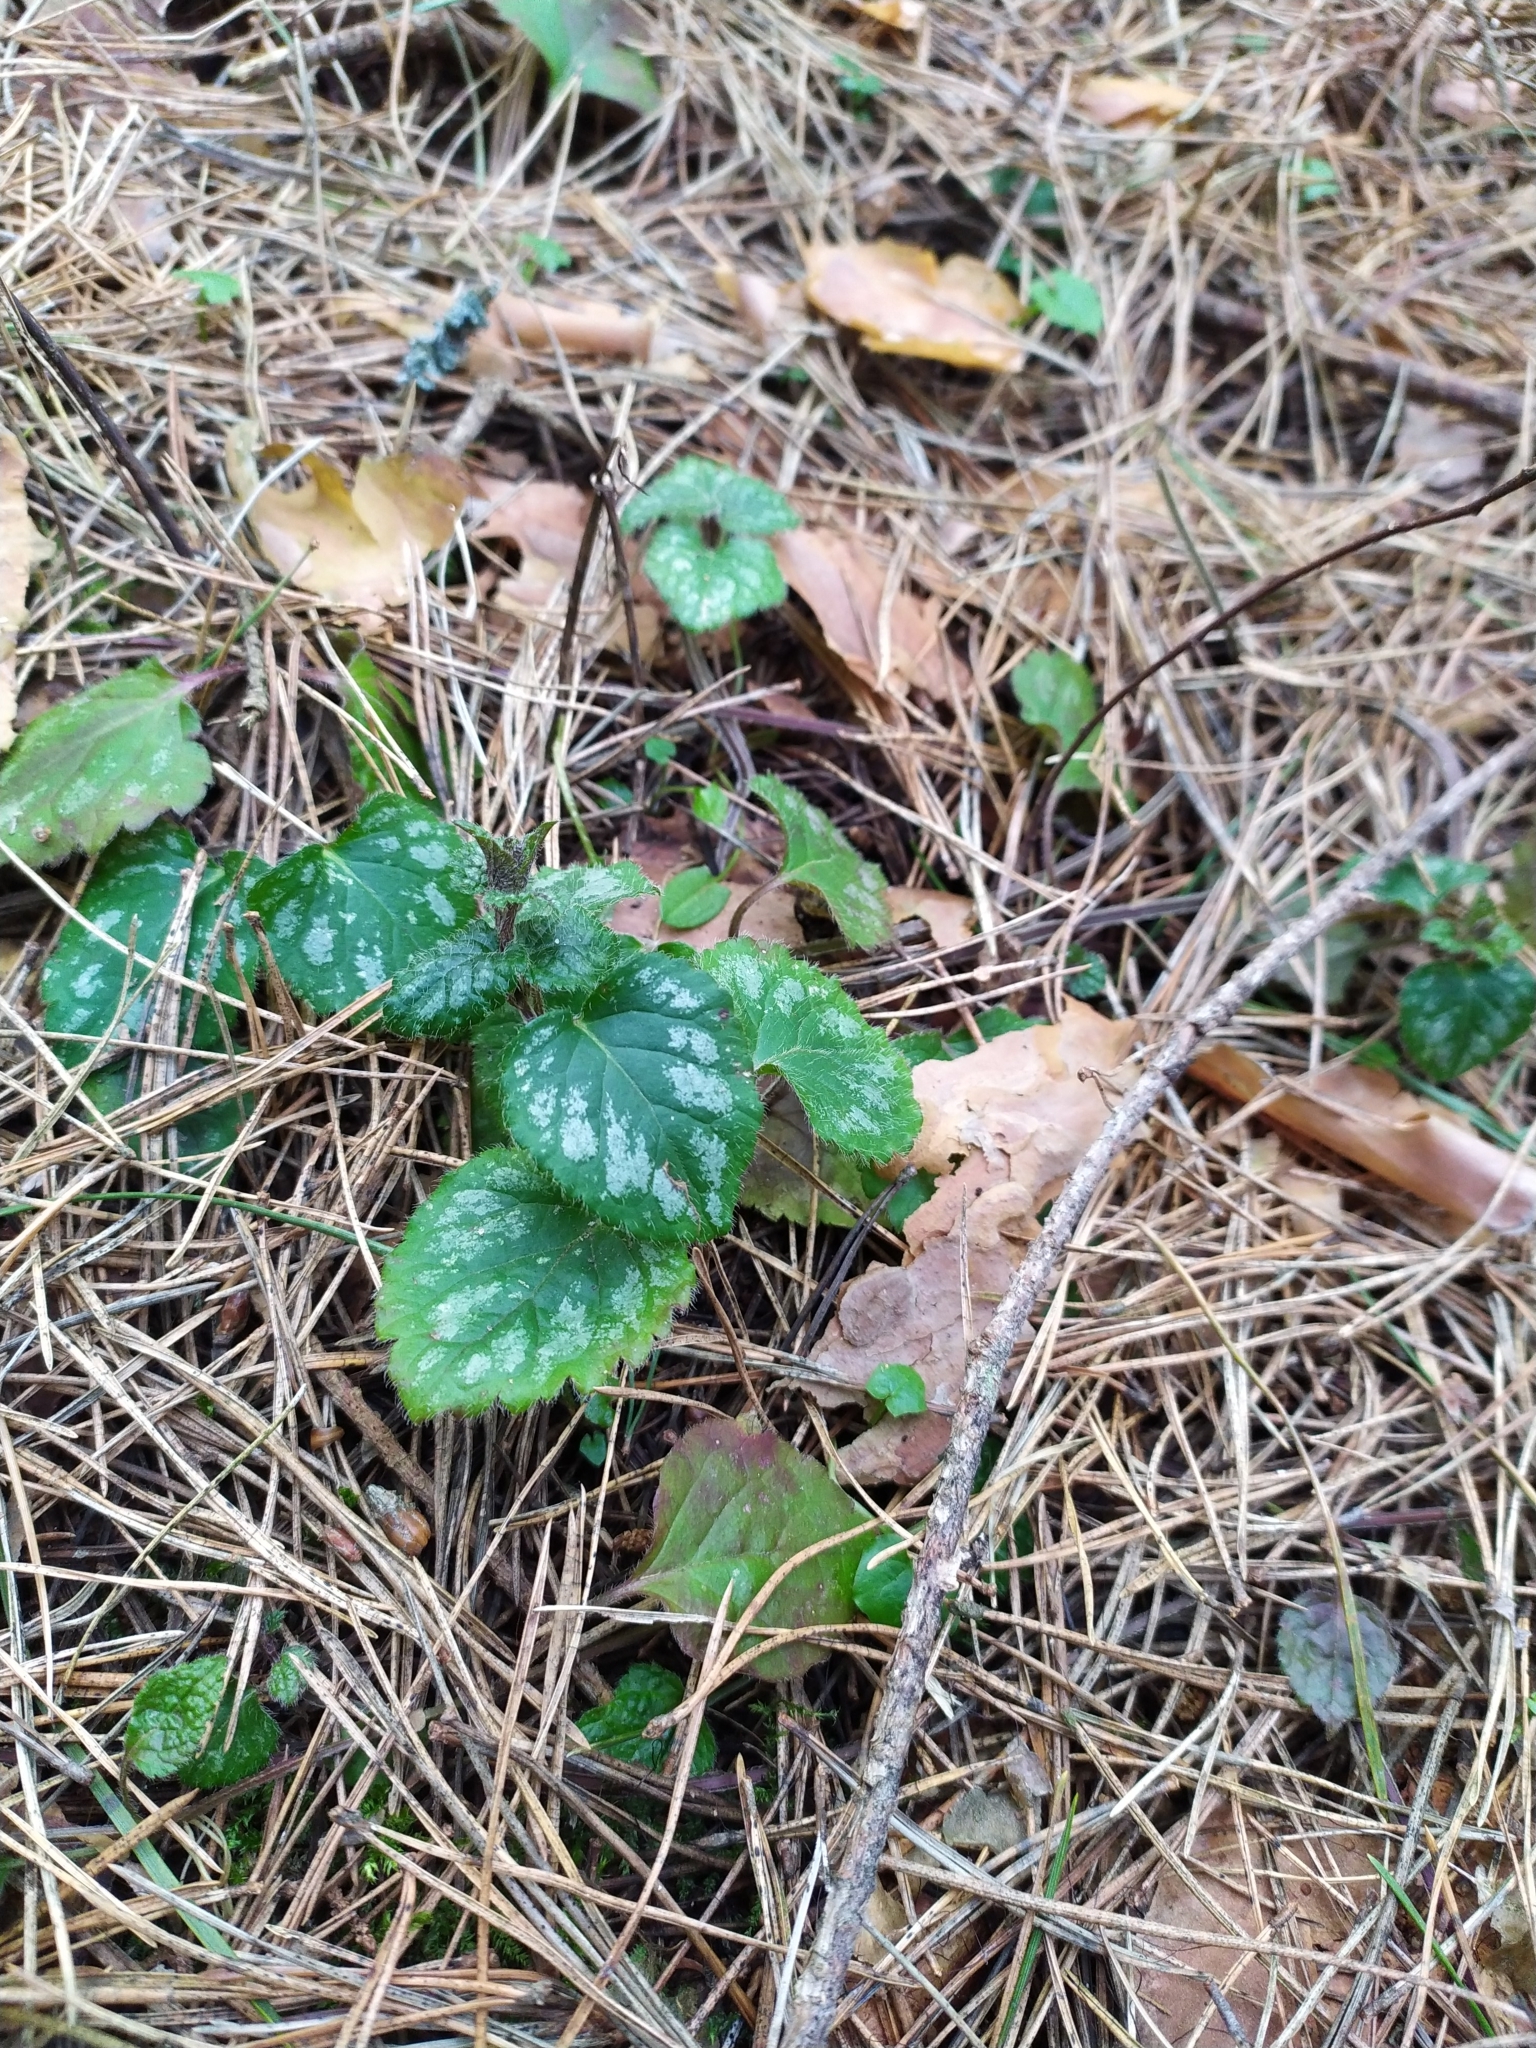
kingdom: Plantae
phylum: Tracheophyta
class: Magnoliopsida
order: Lamiales
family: Lamiaceae
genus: Lamium
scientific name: Lamium galeobdolon
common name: Yellow archangel
